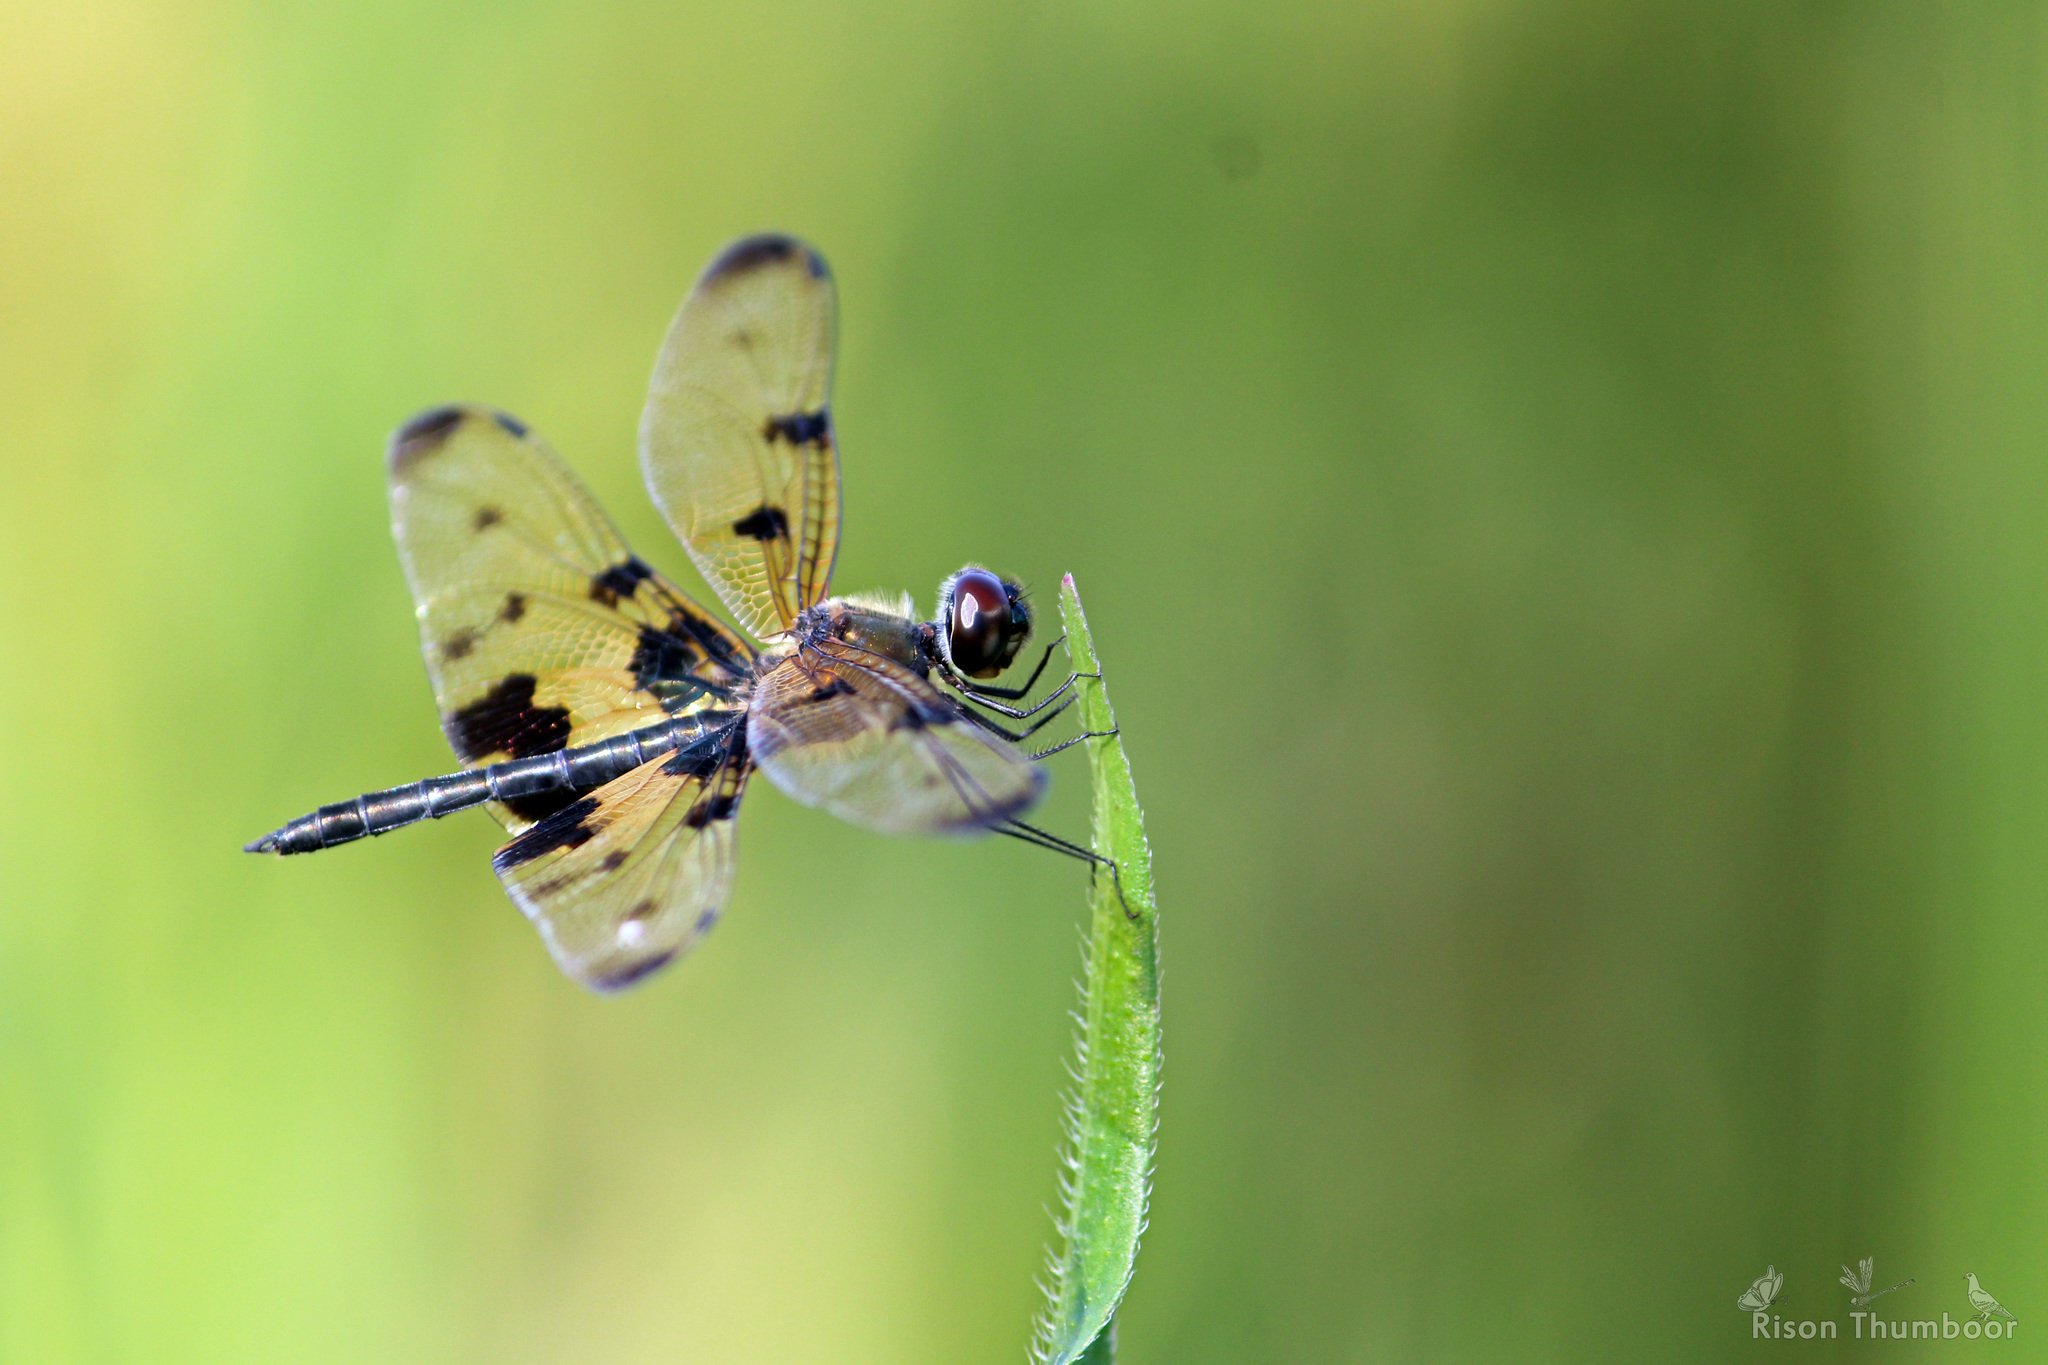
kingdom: Animalia
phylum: Arthropoda
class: Insecta
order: Odonata
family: Libellulidae
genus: Rhyothemis
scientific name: Rhyothemis variegata
